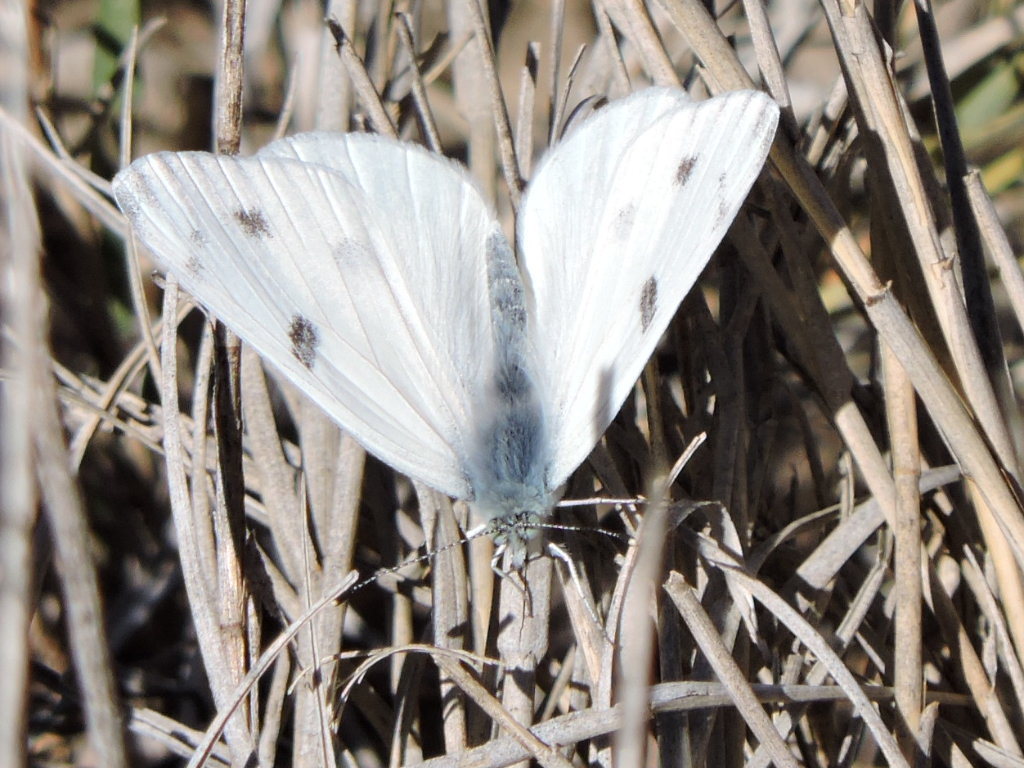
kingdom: Animalia
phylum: Arthropoda
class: Insecta
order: Lepidoptera
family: Pieridae
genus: Pontia
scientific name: Pontia protodice
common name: Checkered white
